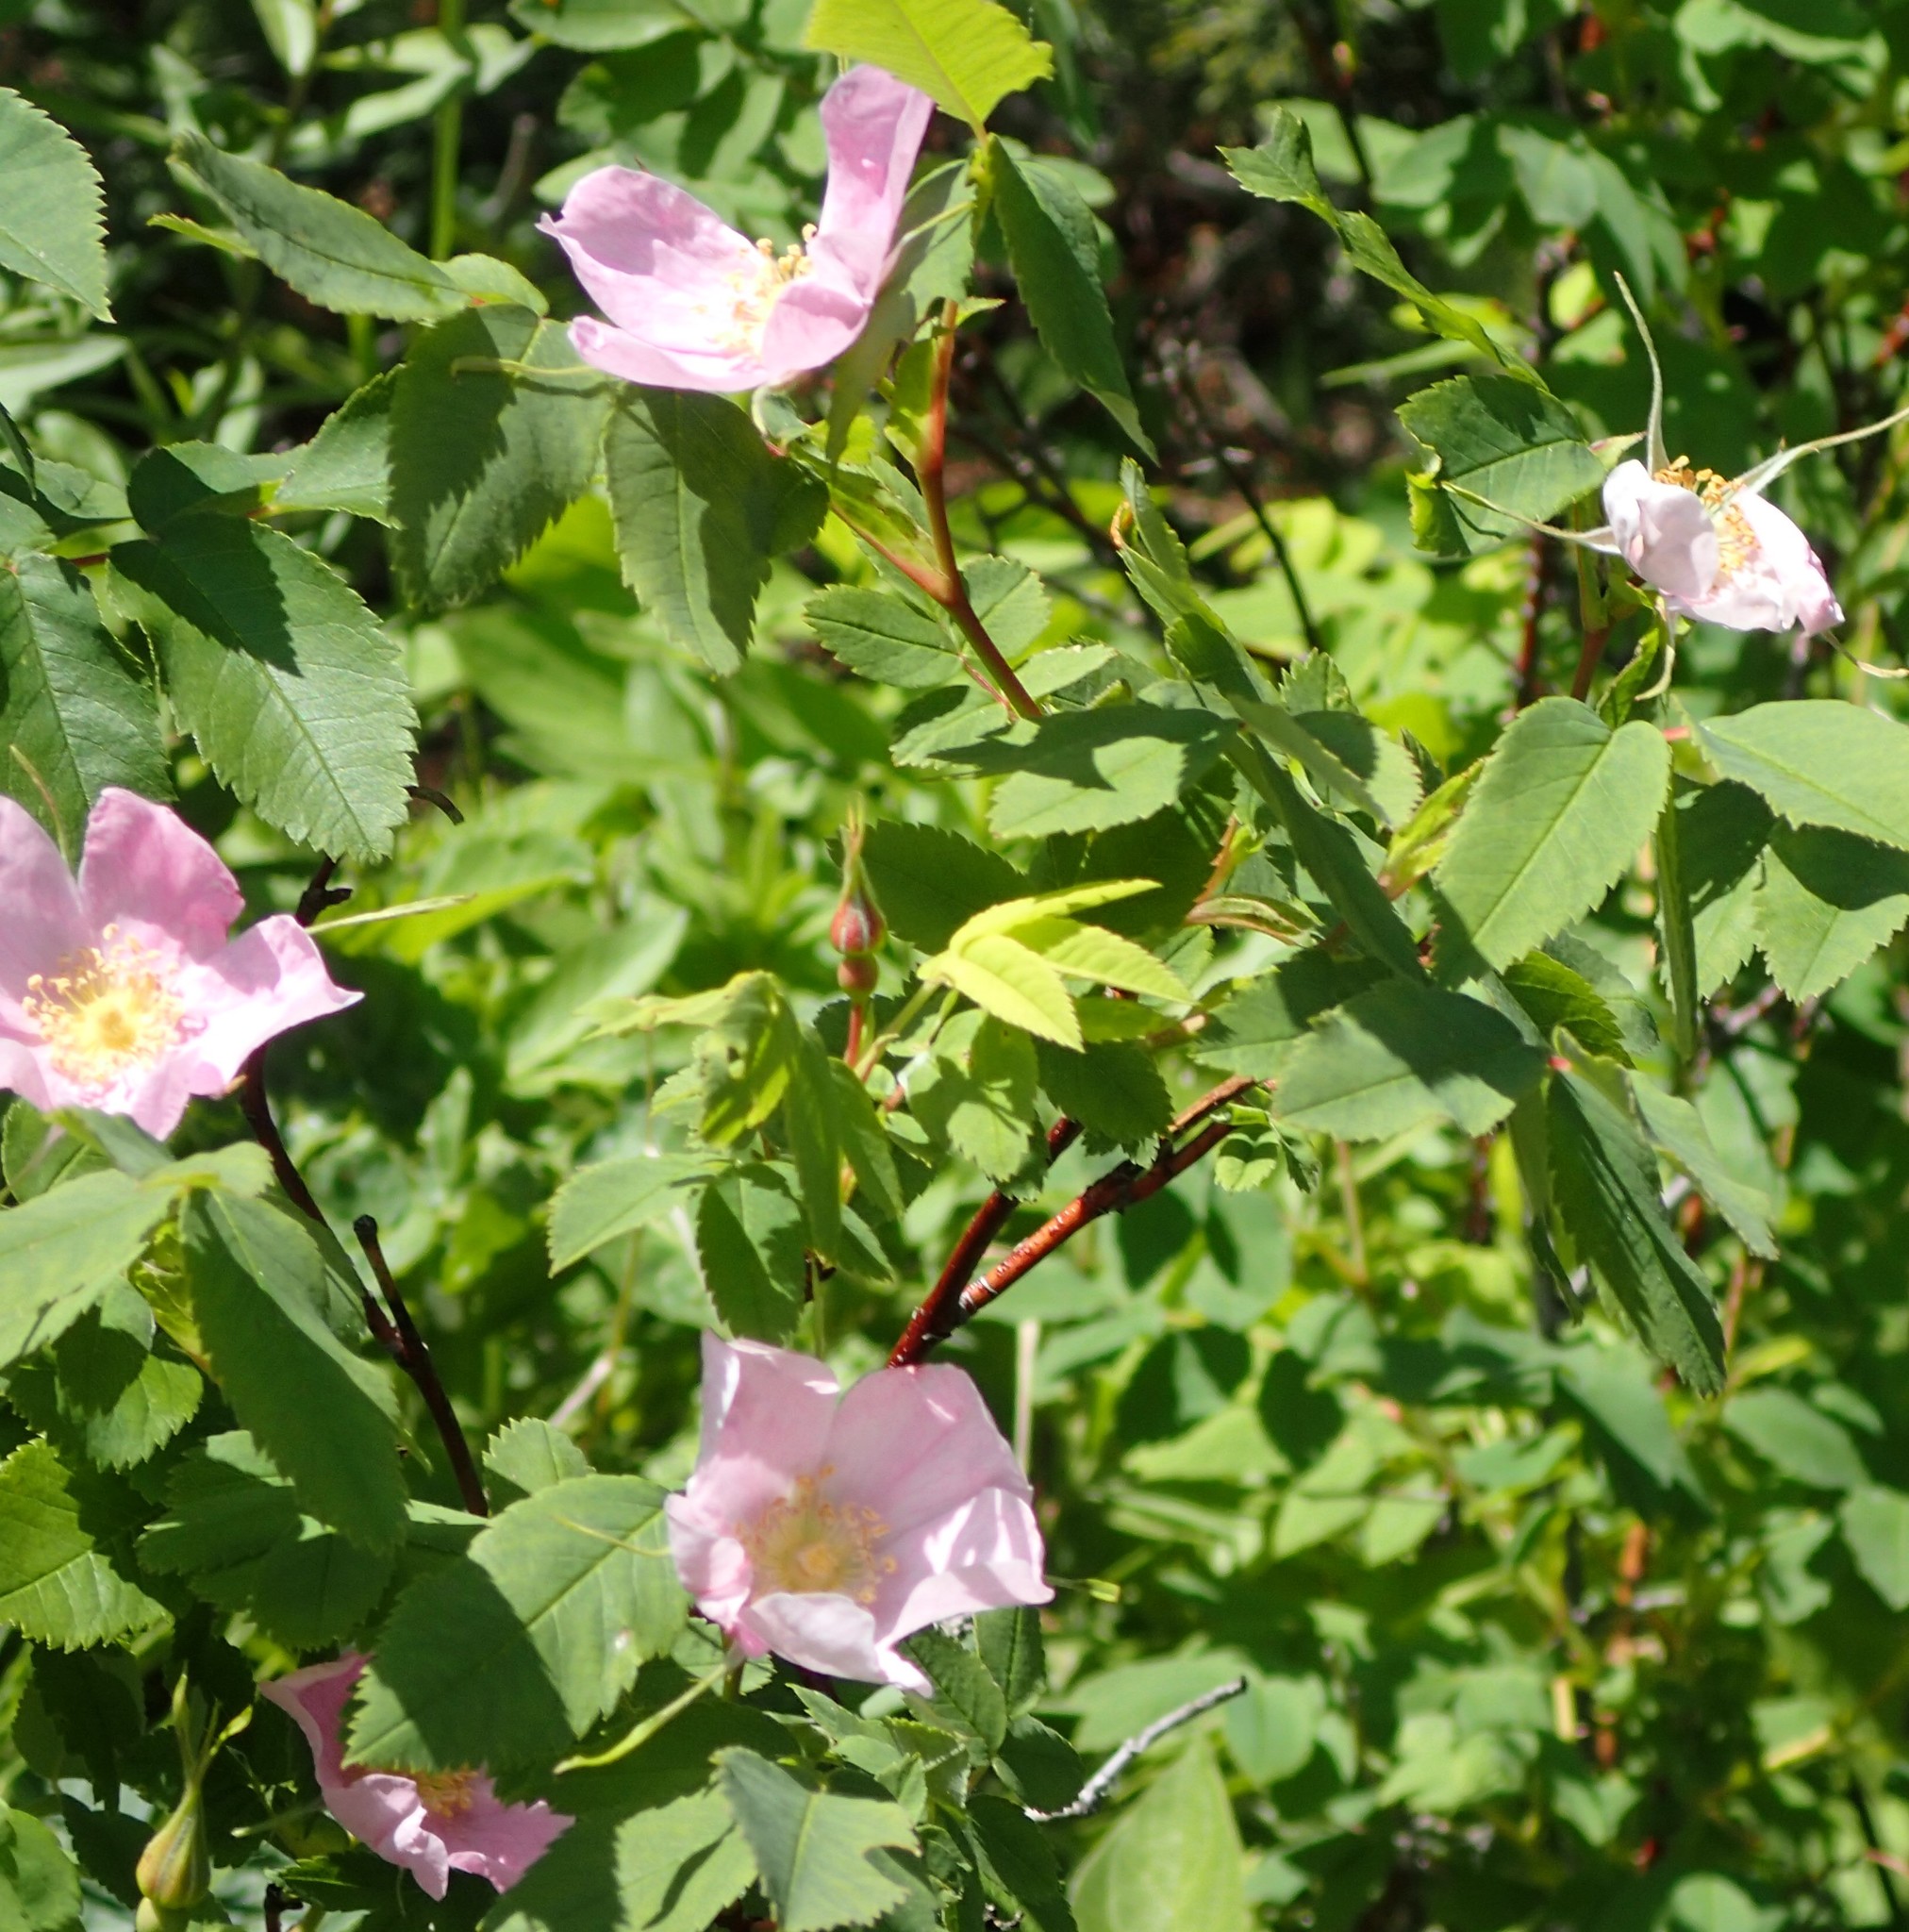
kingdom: Plantae
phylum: Tracheophyta
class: Magnoliopsida
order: Rosales
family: Rosaceae
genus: Rosa
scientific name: Rosa woodsii
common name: Woods's rose
